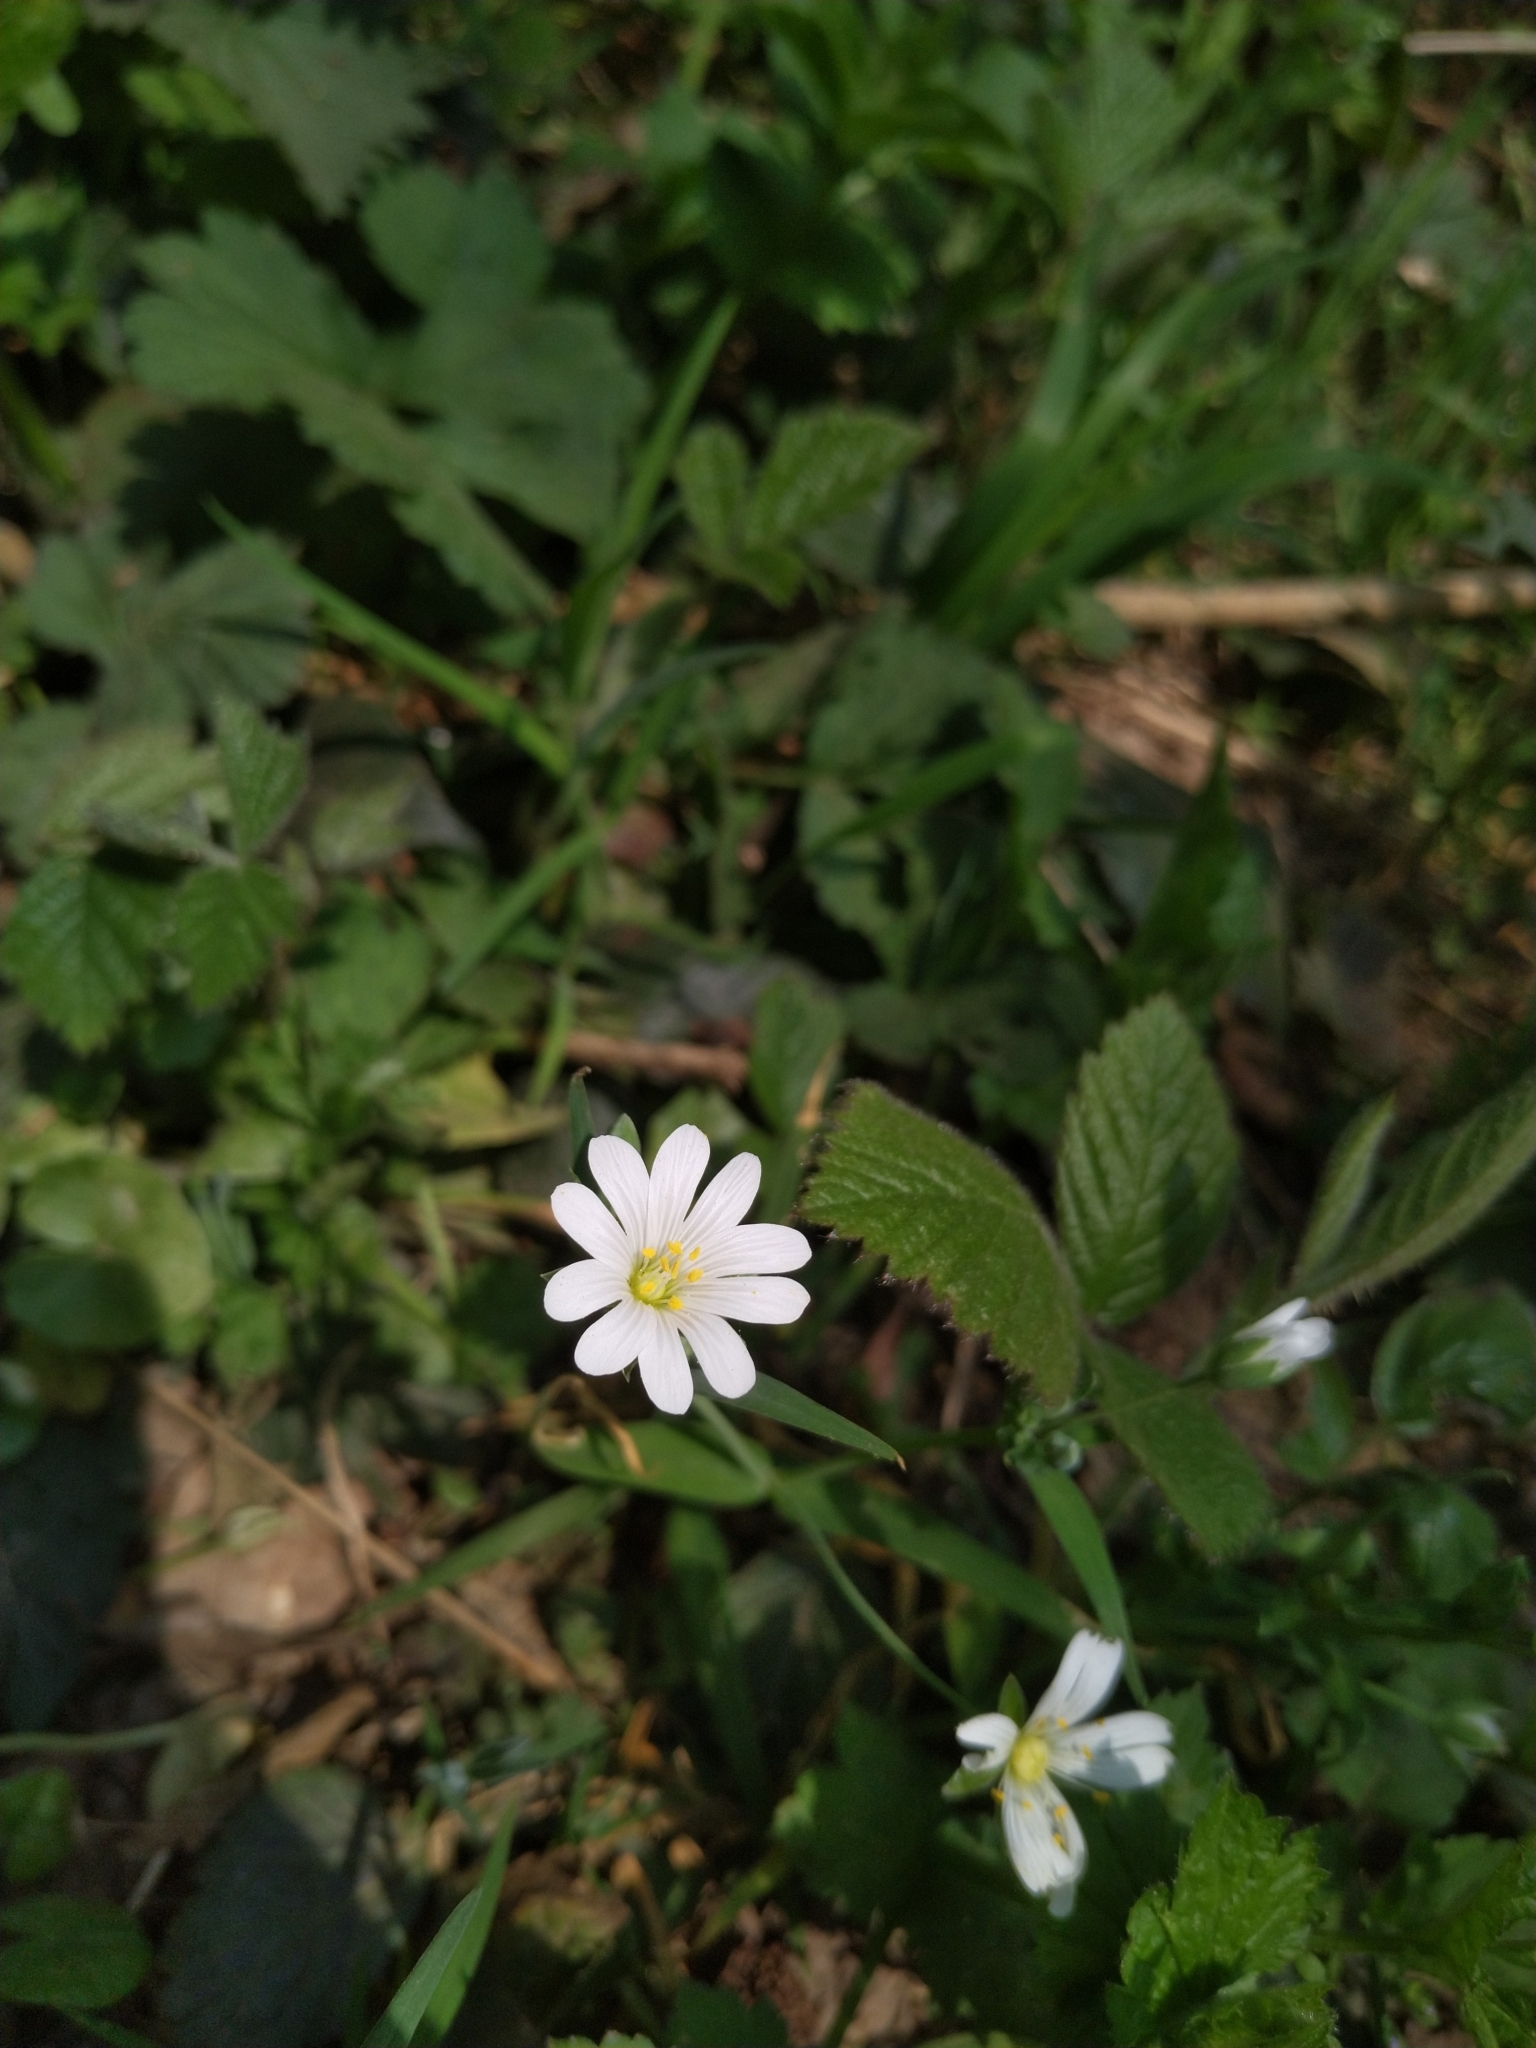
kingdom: Plantae
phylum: Tracheophyta
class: Magnoliopsida
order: Caryophyllales
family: Caryophyllaceae
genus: Rabelera
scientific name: Rabelera holostea
